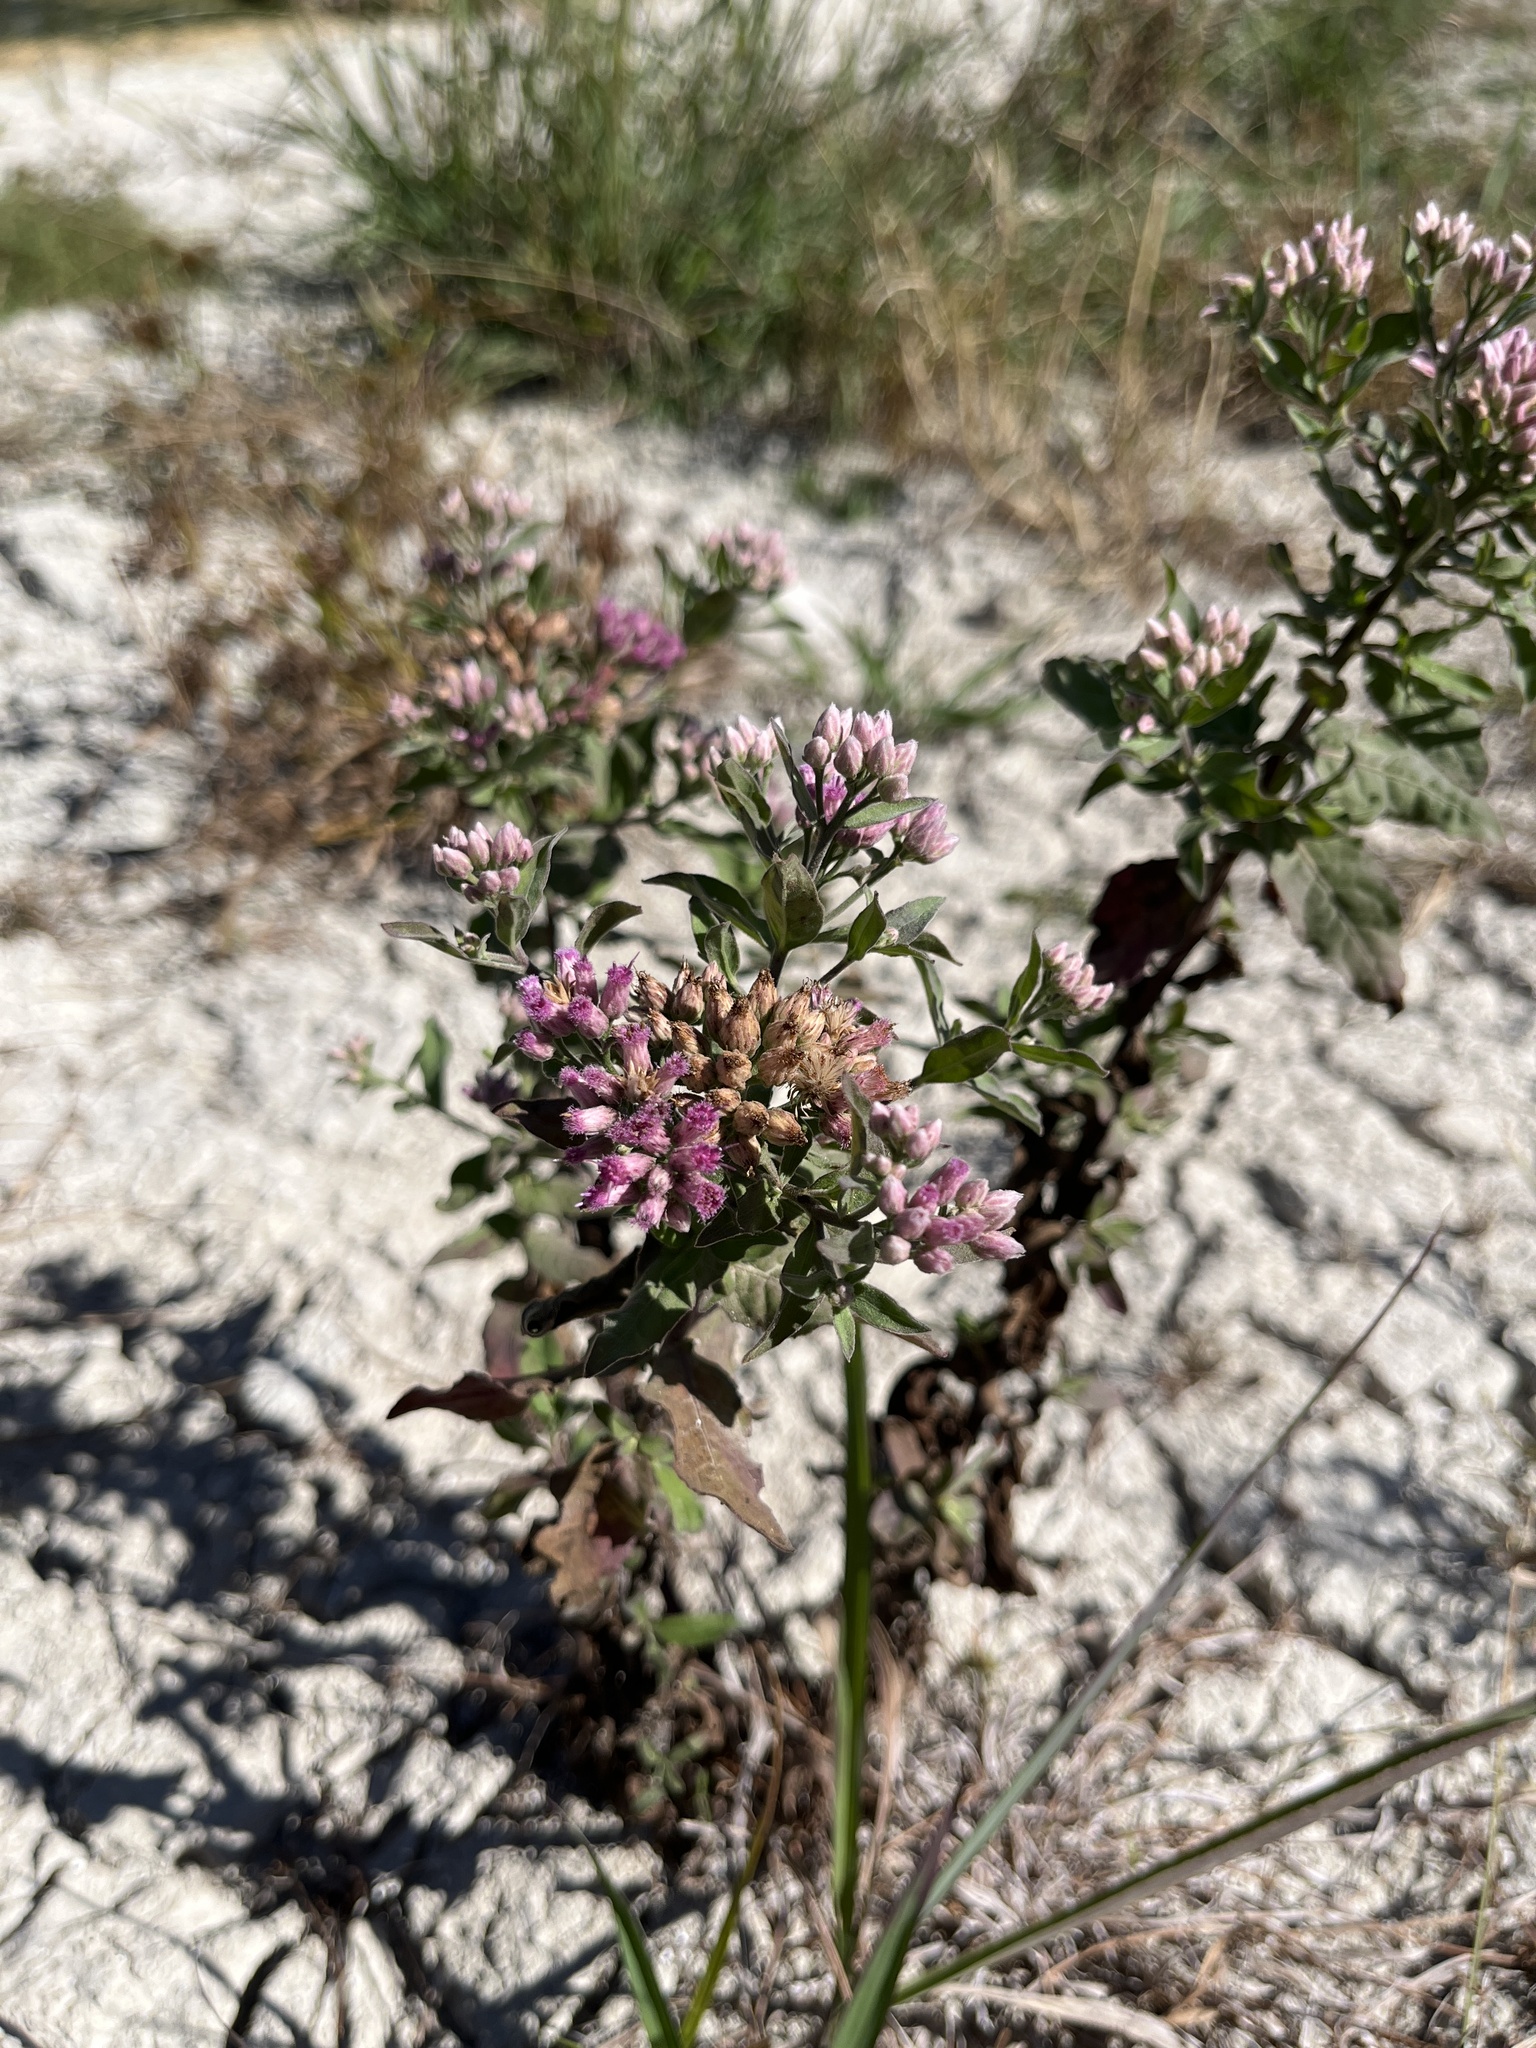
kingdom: Plantae
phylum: Tracheophyta
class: Magnoliopsida
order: Asterales
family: Asteraceae
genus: Pluchea
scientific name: Pluchea odorata
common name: Saltmarsh fleabane
